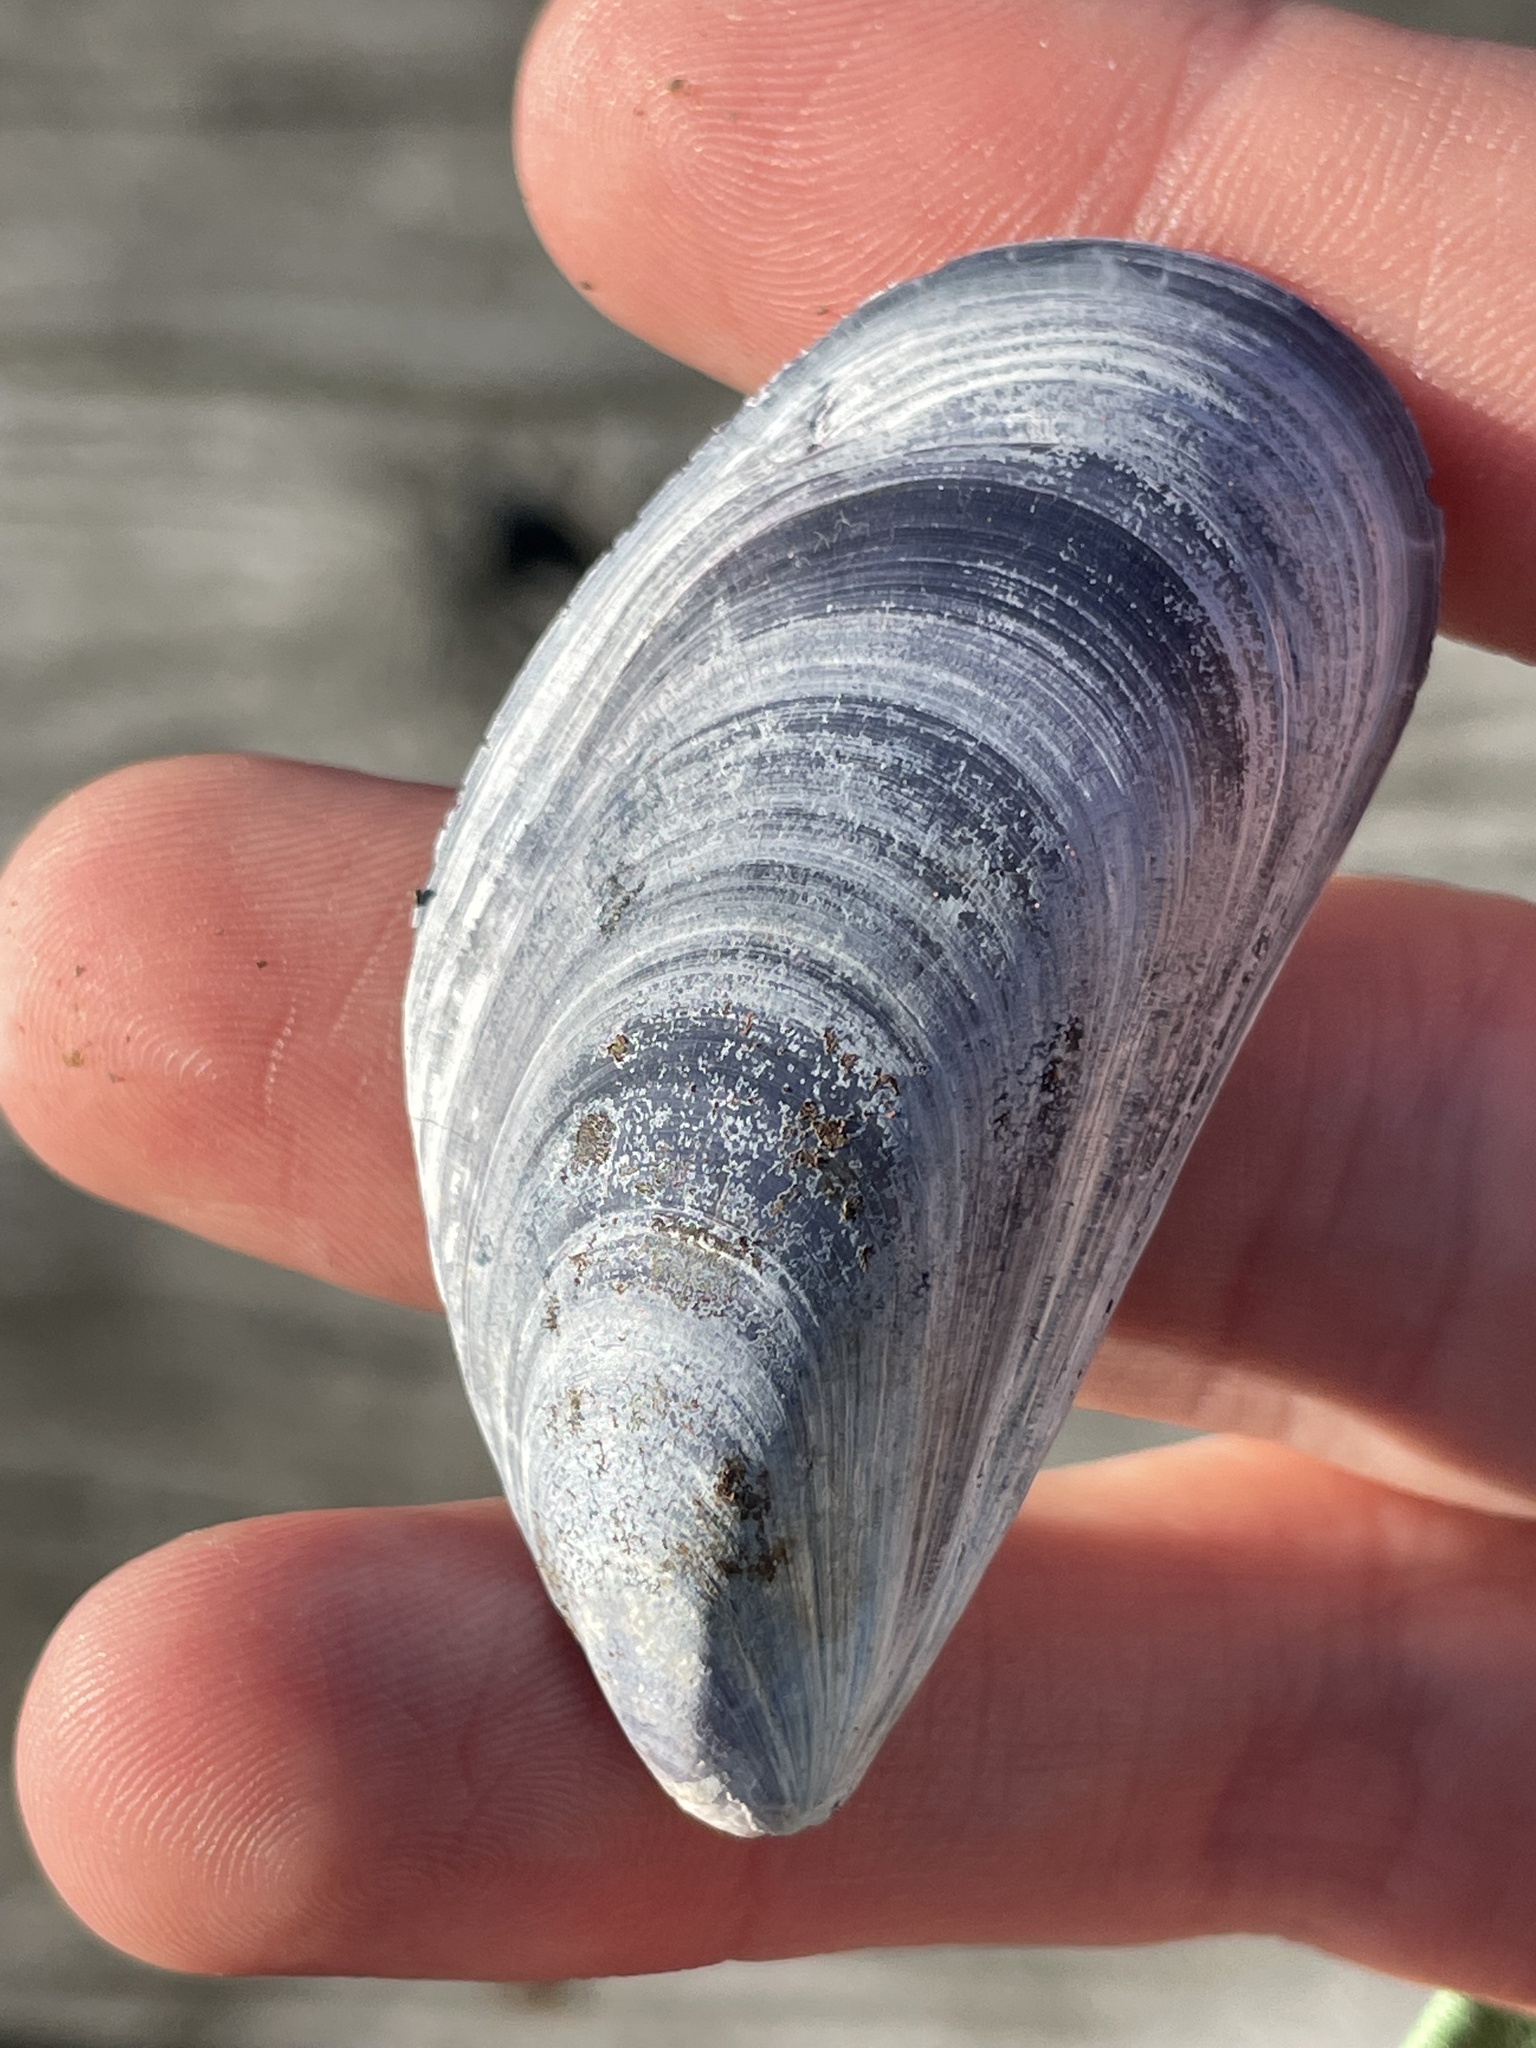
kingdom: Animalia
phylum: Mollusca
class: Bivalvia
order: Mytilida
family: Mytilidae
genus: Mytilus
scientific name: Mytilus edulis
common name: Blue mussel
